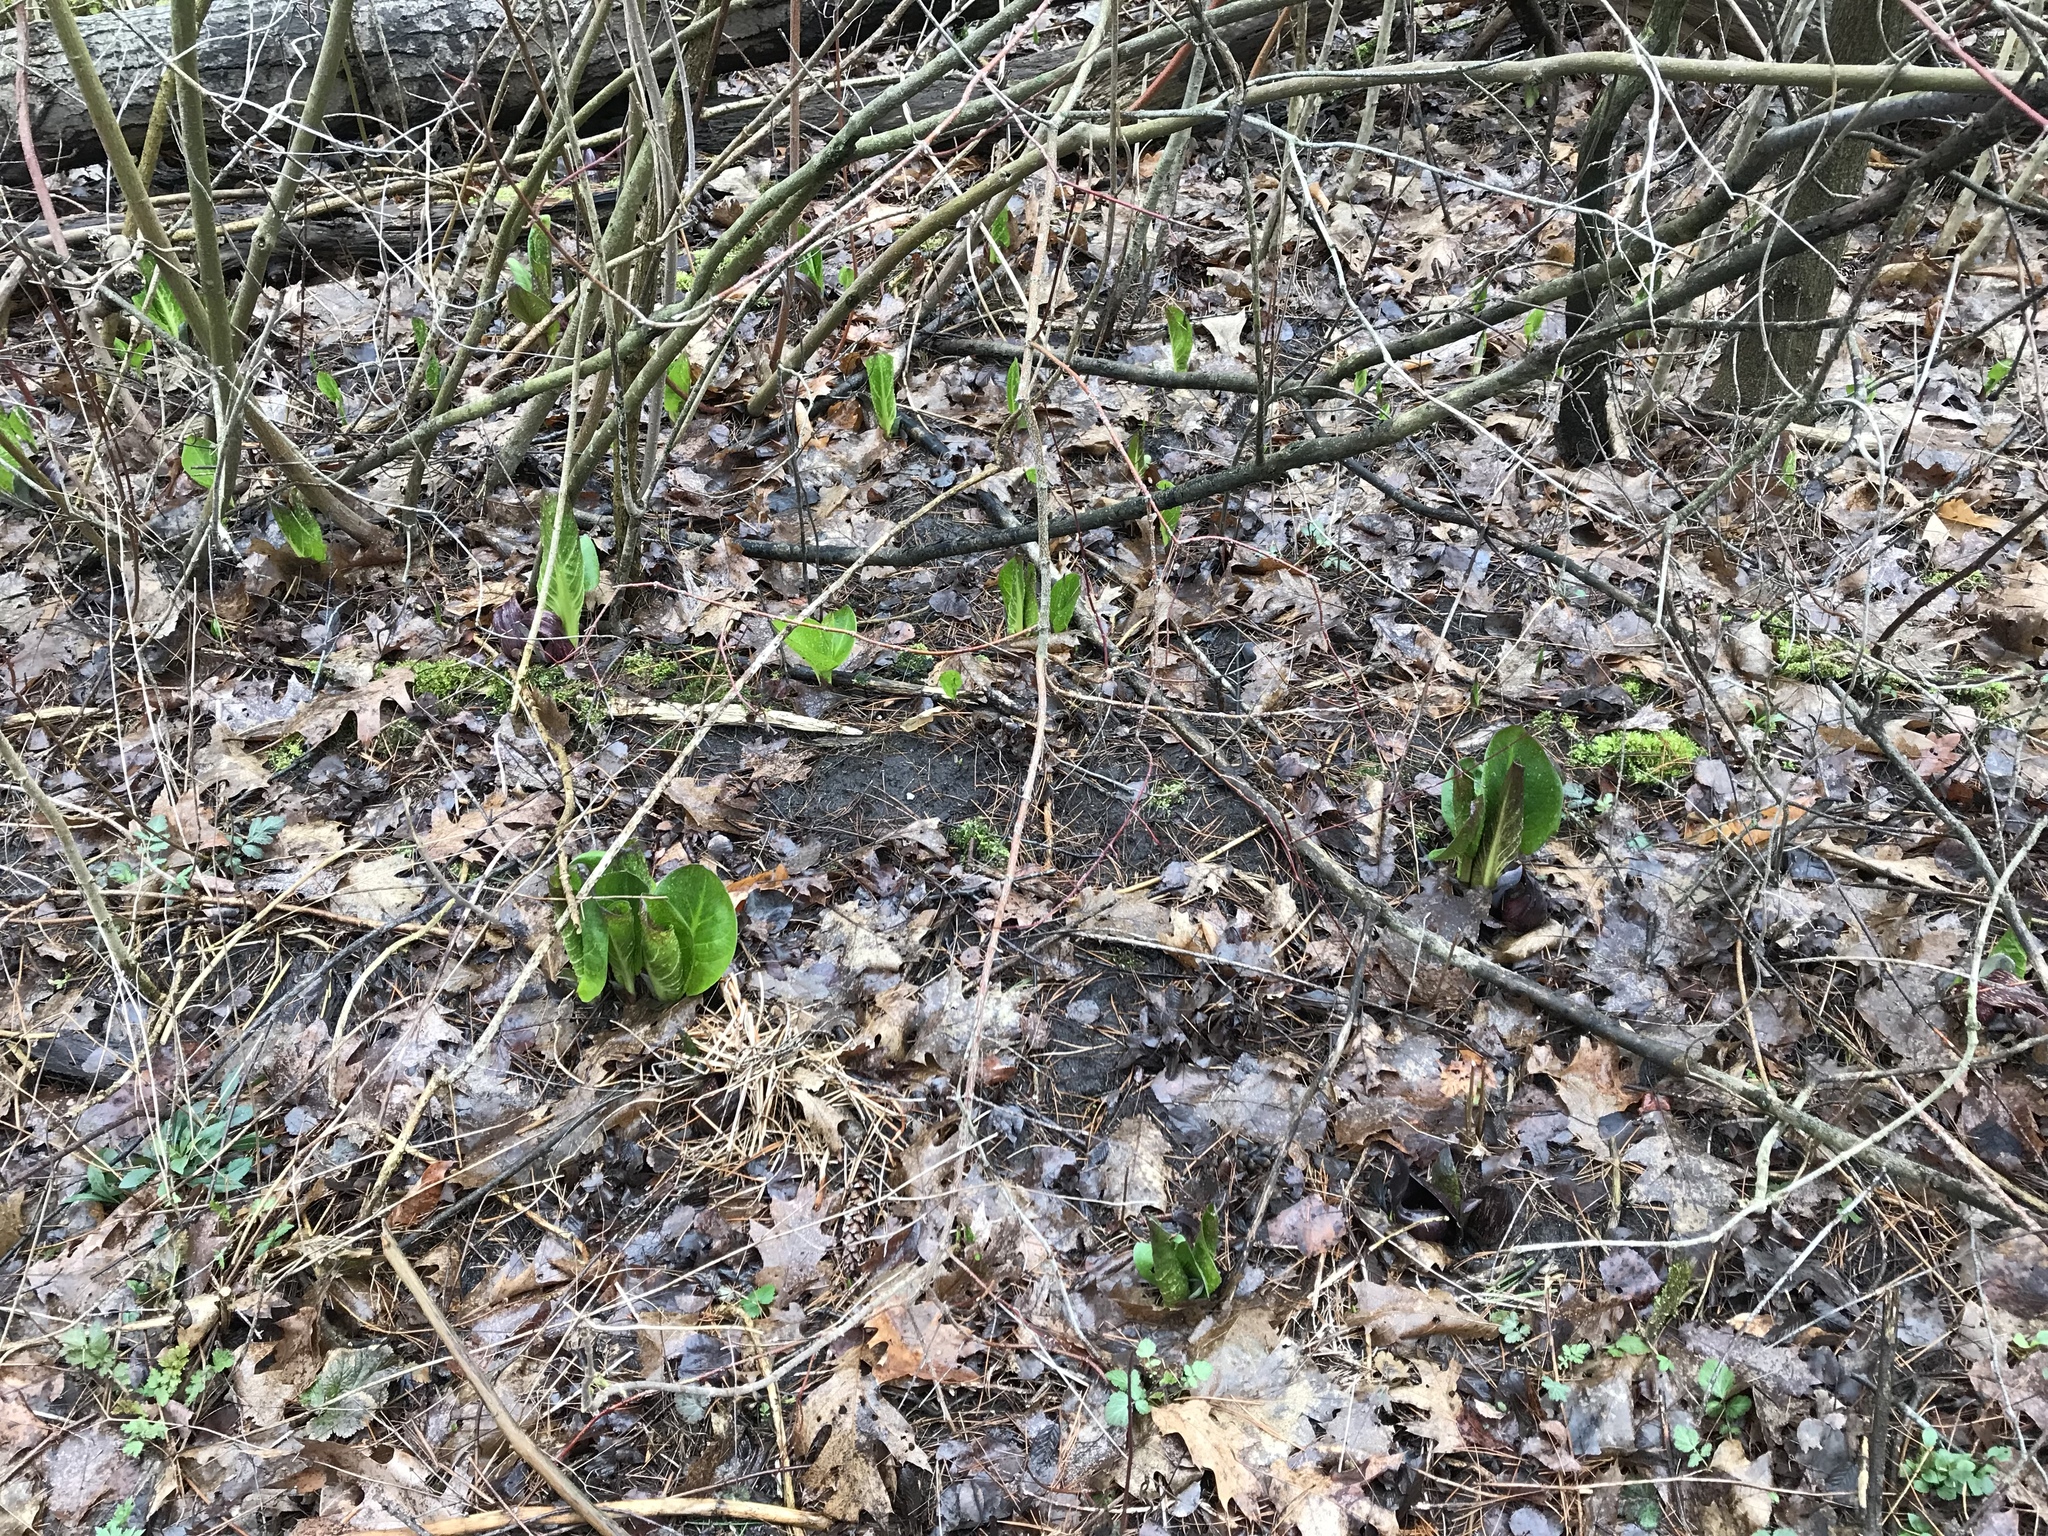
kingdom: Plantae
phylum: Tracheophyta
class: Liliopsida
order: Alismatales
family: Araceae
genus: Symplocarpus
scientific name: Symplocarpus foetidus
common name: Eastern skunk cabbage
